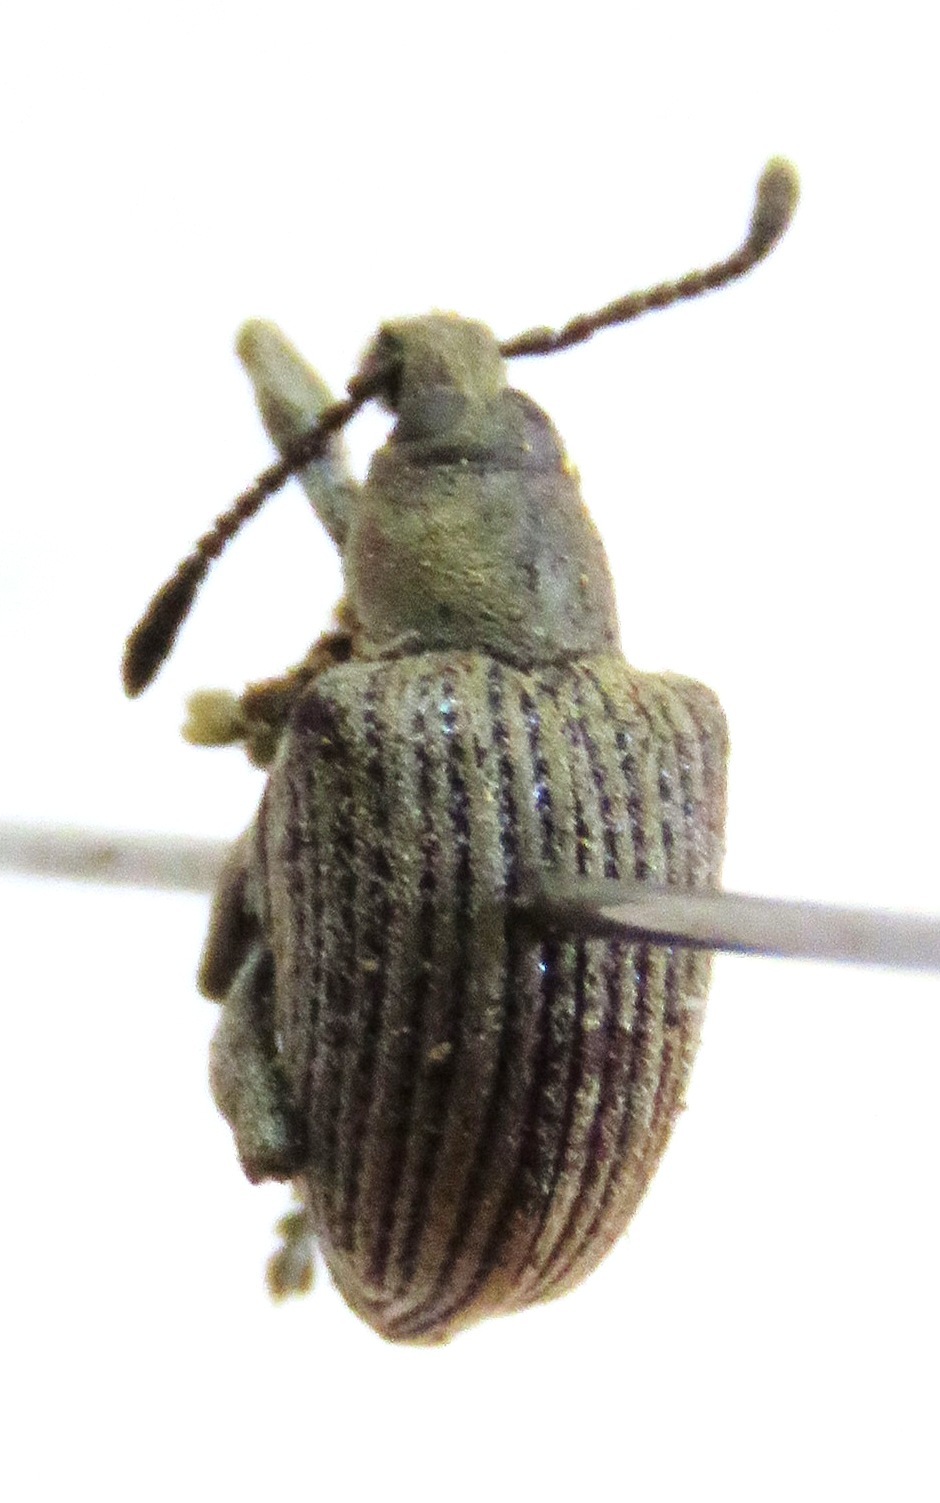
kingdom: Animalia
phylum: Arthropoda
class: Insecta
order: Coleoptera
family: Curculionidae
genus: Cydianerus
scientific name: Cydianerus argenteus
